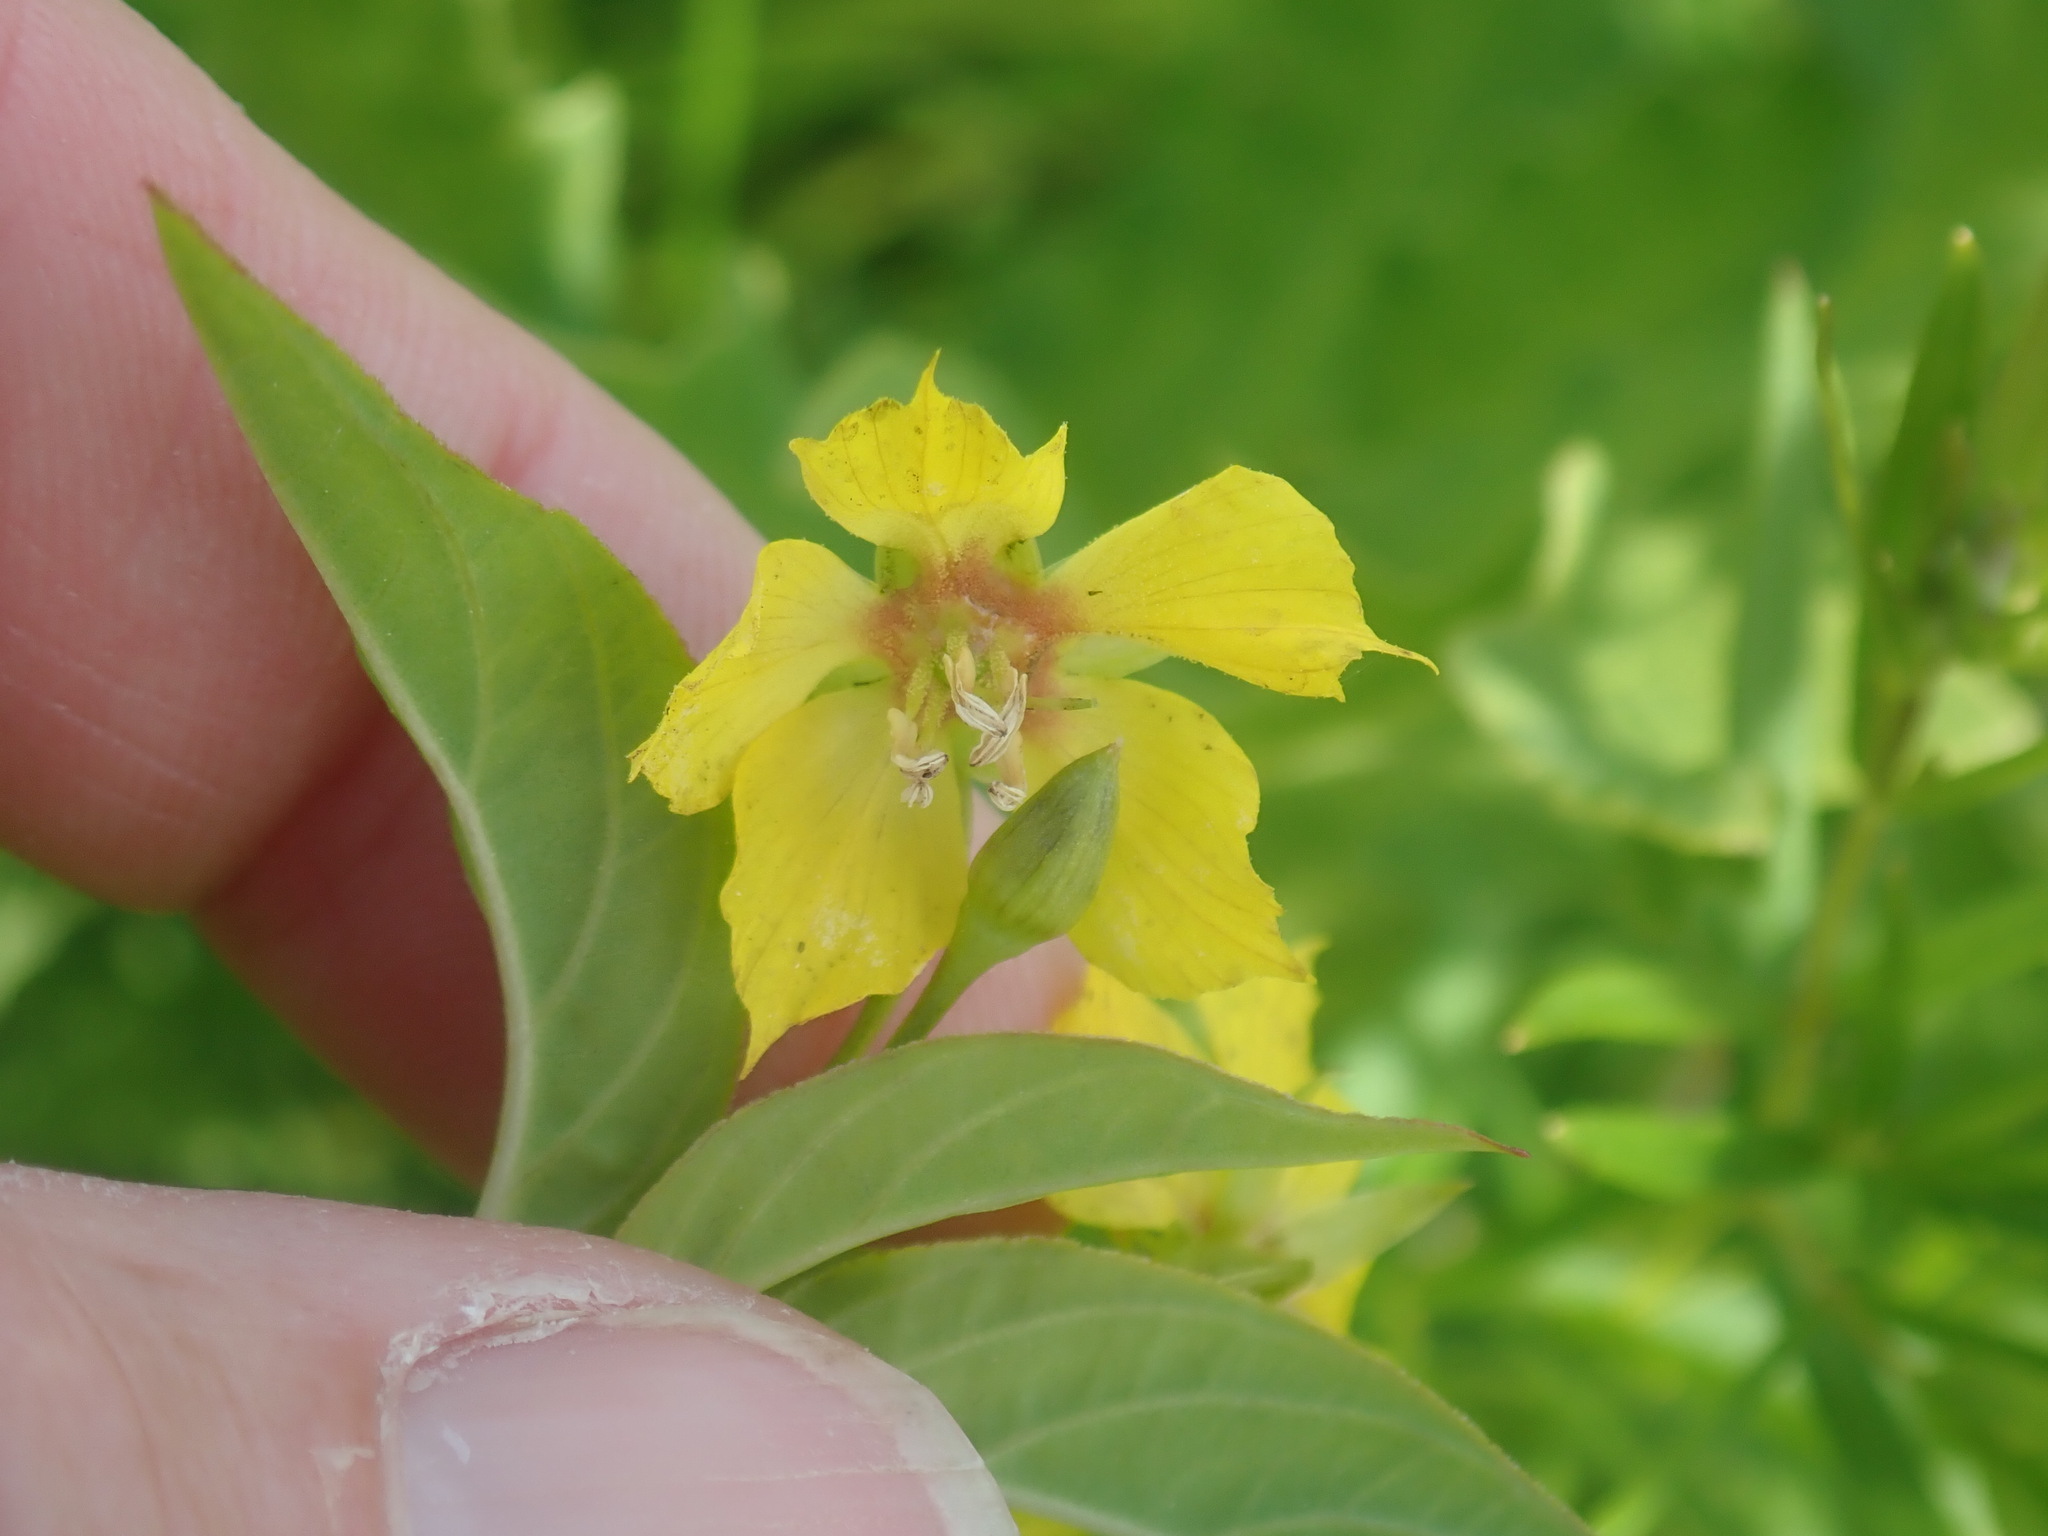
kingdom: Plantae
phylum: Tracheophyta
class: Magnoliopsida
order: Ericales
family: Primulaceae
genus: Lysimachia
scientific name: Lysimachia ciliata
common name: Fringed loosestrife
